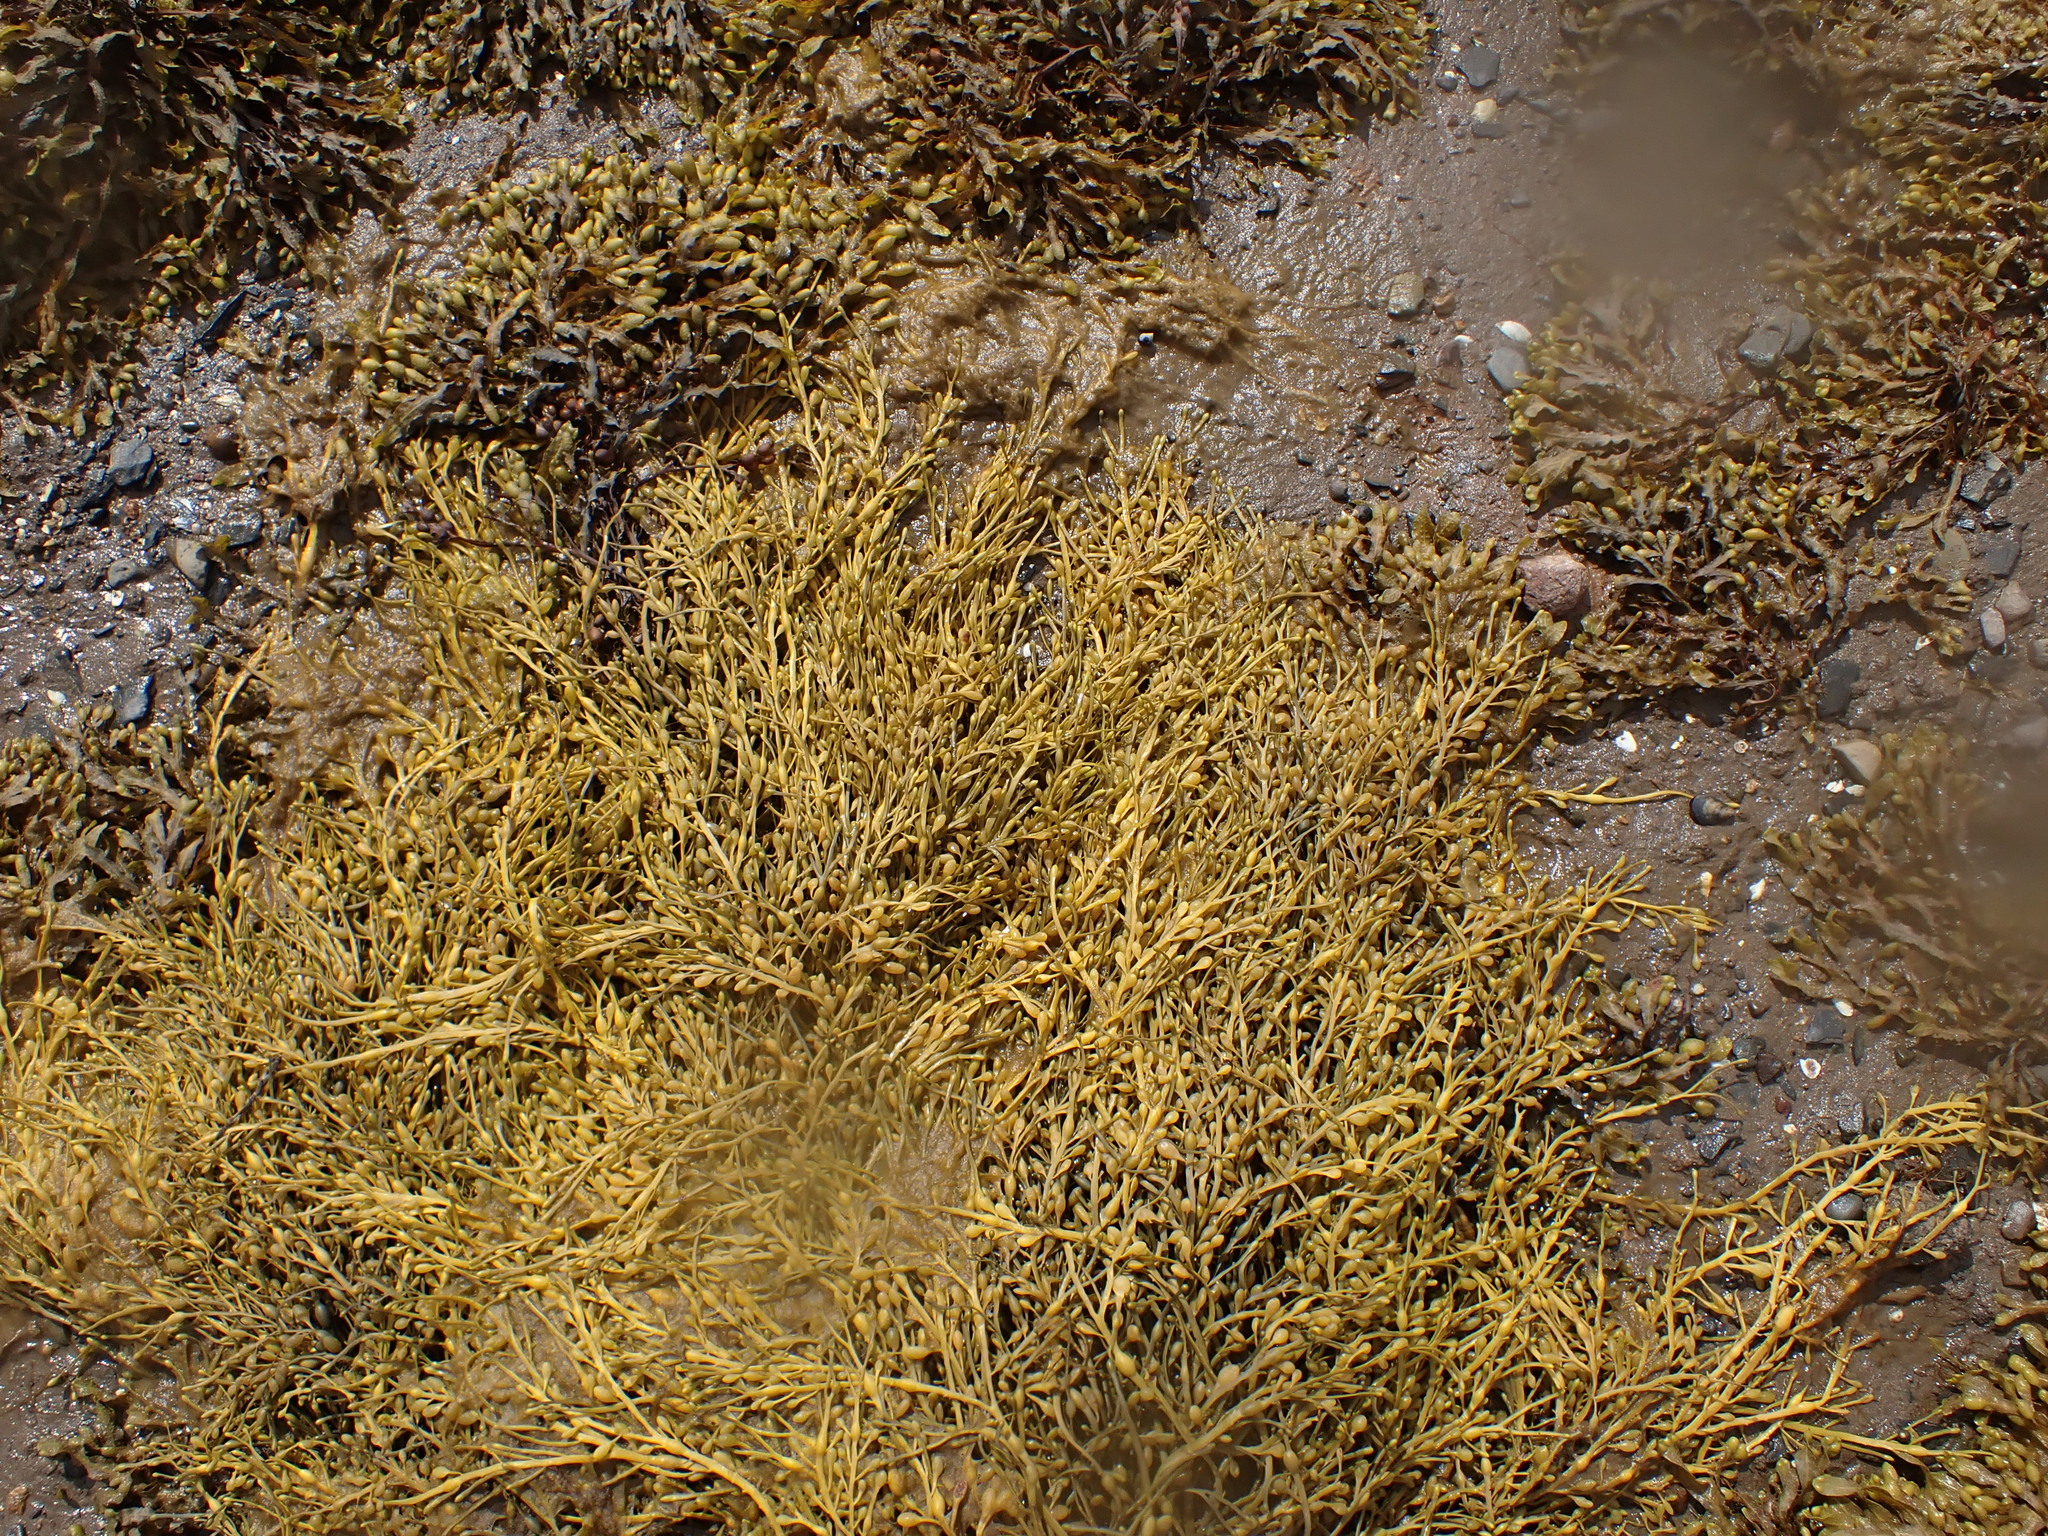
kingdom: Chromista
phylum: Ochrophyta
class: Phaeophyceae
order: Fucales
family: Fucaceae
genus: Ascophyllum
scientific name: Ascophyllum nodosum
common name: Knotted wrack
